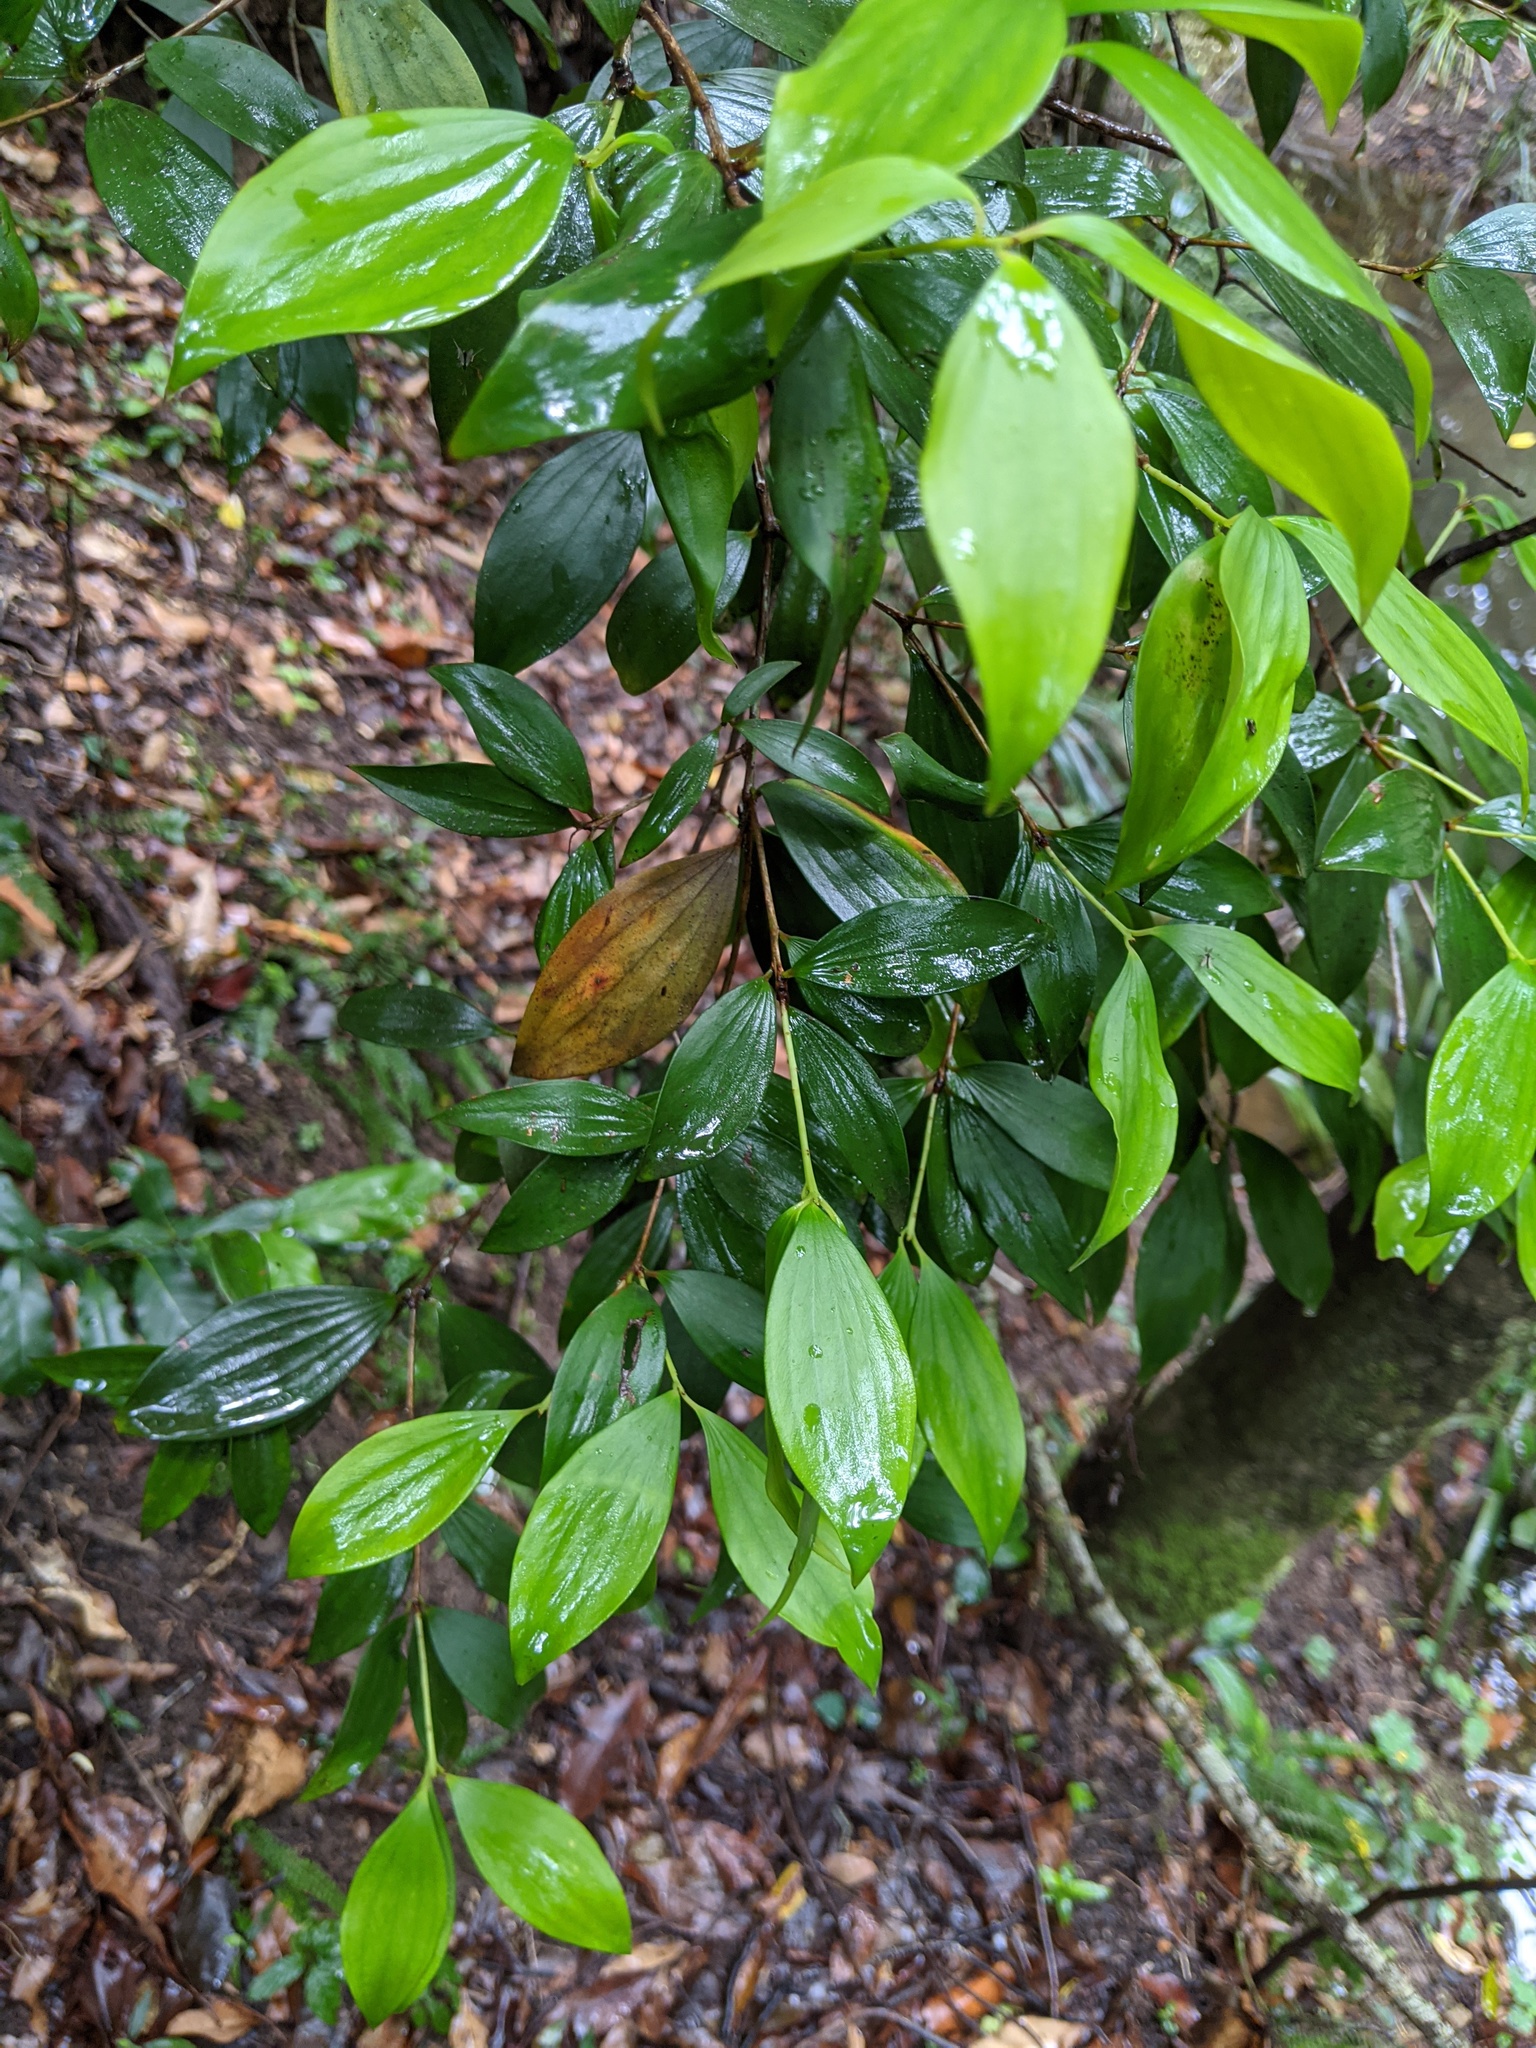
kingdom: Plantae
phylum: Tracheophyta
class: Magnoliopsida
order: Ericales
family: Ericaceae
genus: Trochocarpa
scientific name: Trochocarpa laurina
